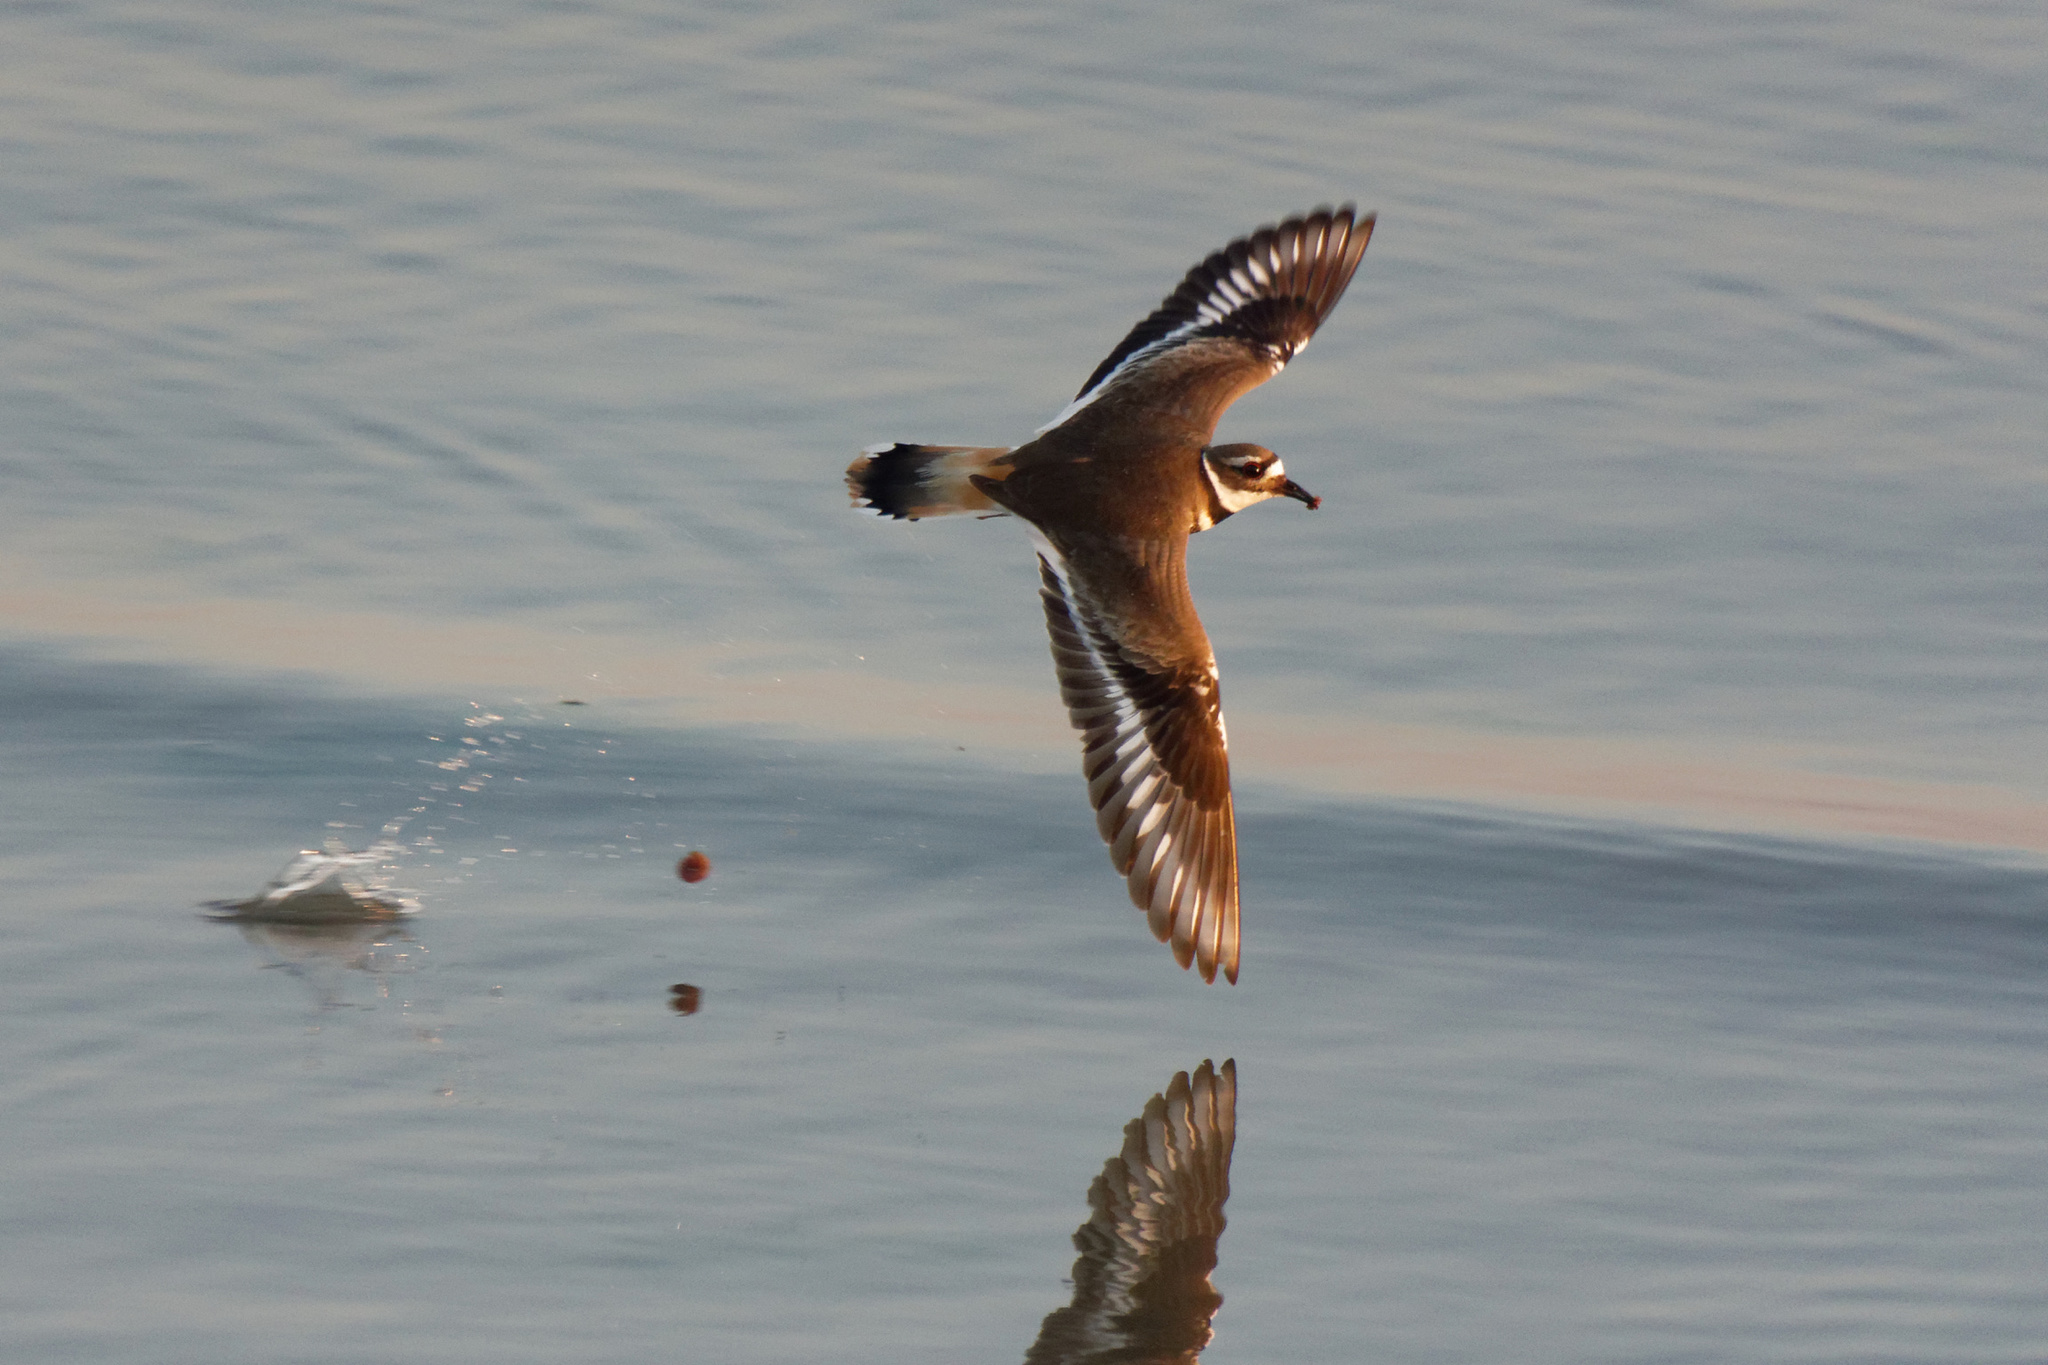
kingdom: Animalia
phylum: Chordata
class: Aves
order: Charadriiformes
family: Charadriidae
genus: Charadrius
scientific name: Charadrius vociferus
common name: Killdeer
